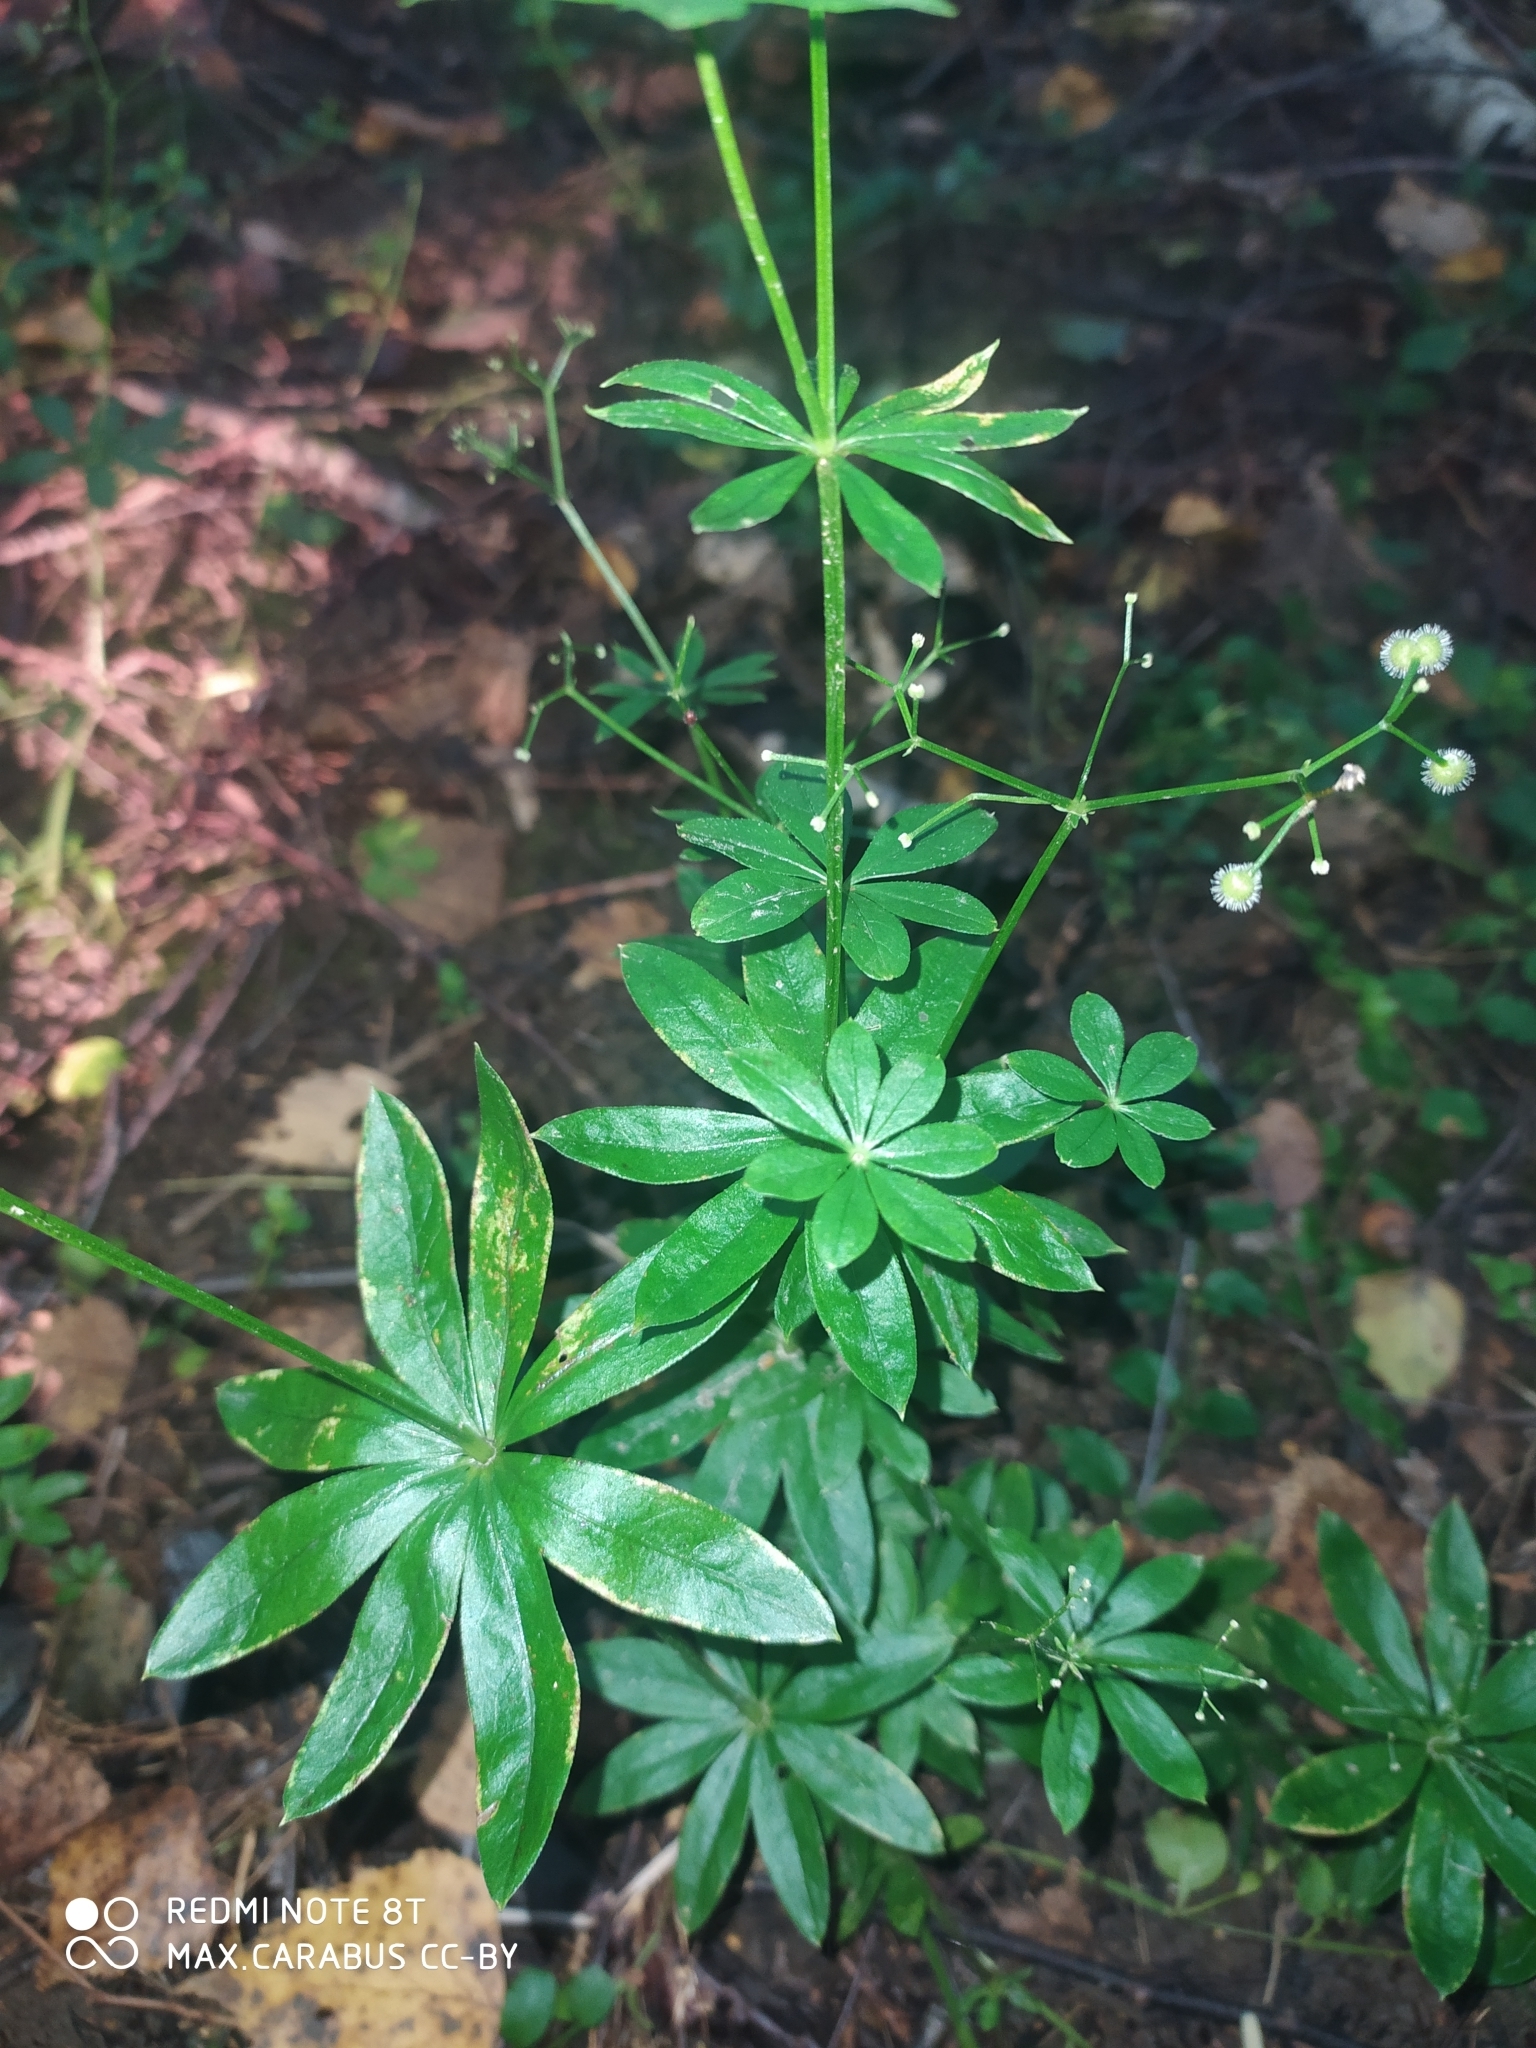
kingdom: Plantae
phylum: Tracheophyta
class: Magnoliopsida
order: Gentianales
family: Rubiaceae
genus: Galium
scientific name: Galium odoratum
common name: Sweet woodruff
